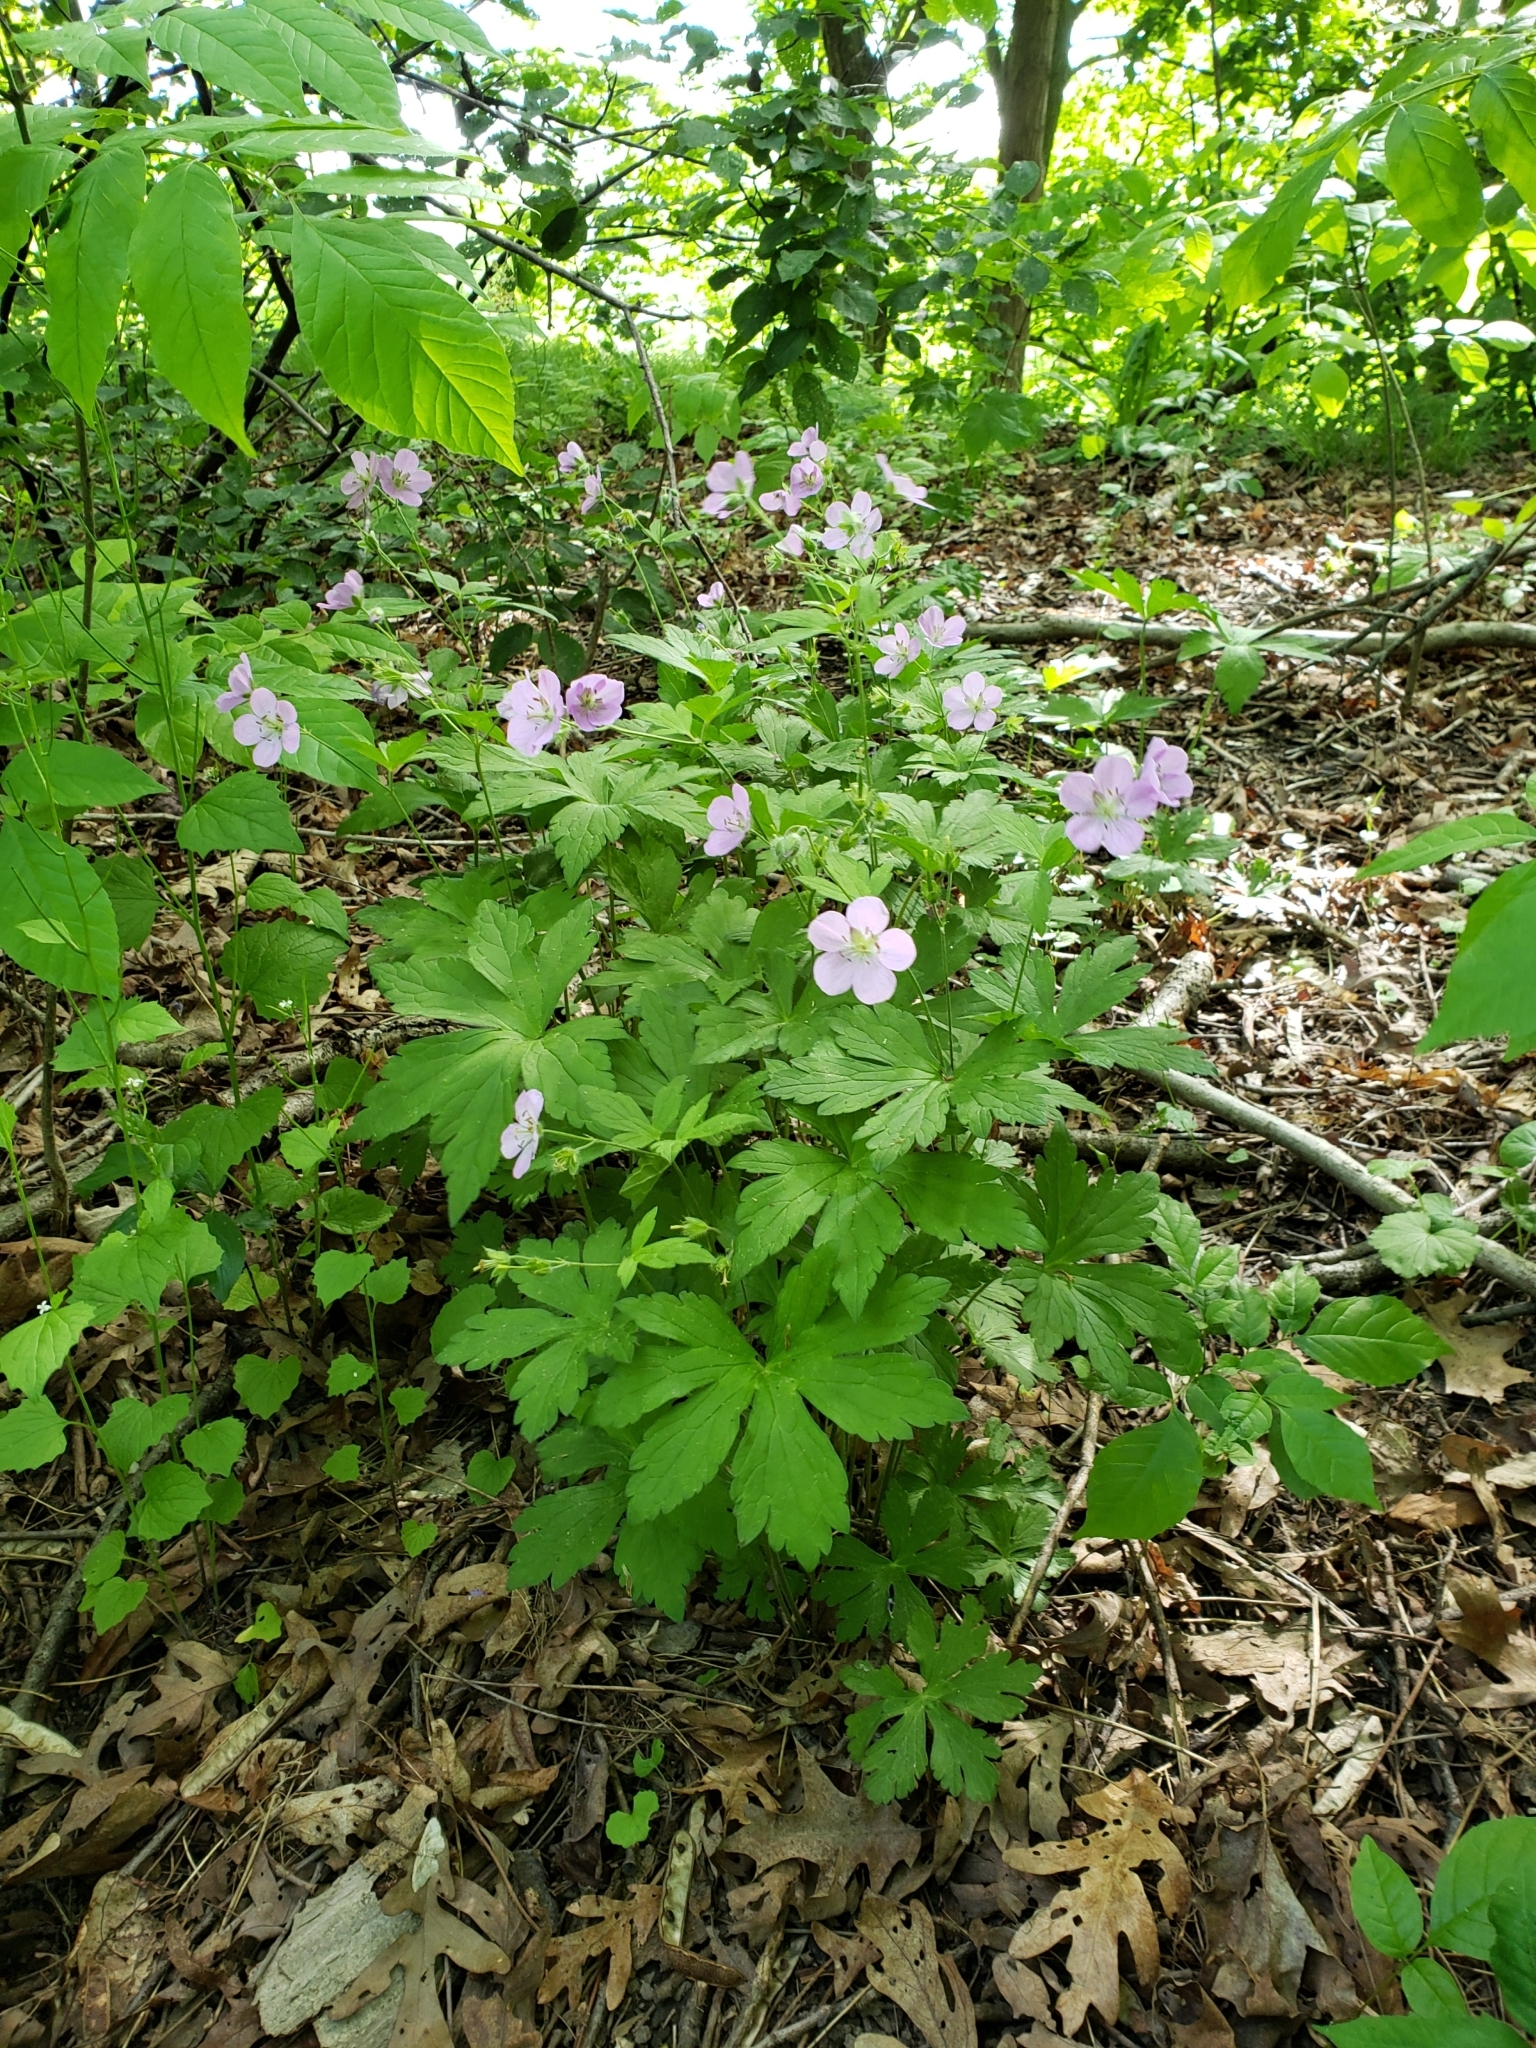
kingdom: Plantae
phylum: Tracheophyta
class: Magnoliopsida
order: Geraniales
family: Geraniaceae
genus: Geranium
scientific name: Geranium maculatum
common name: Spotted geranium
